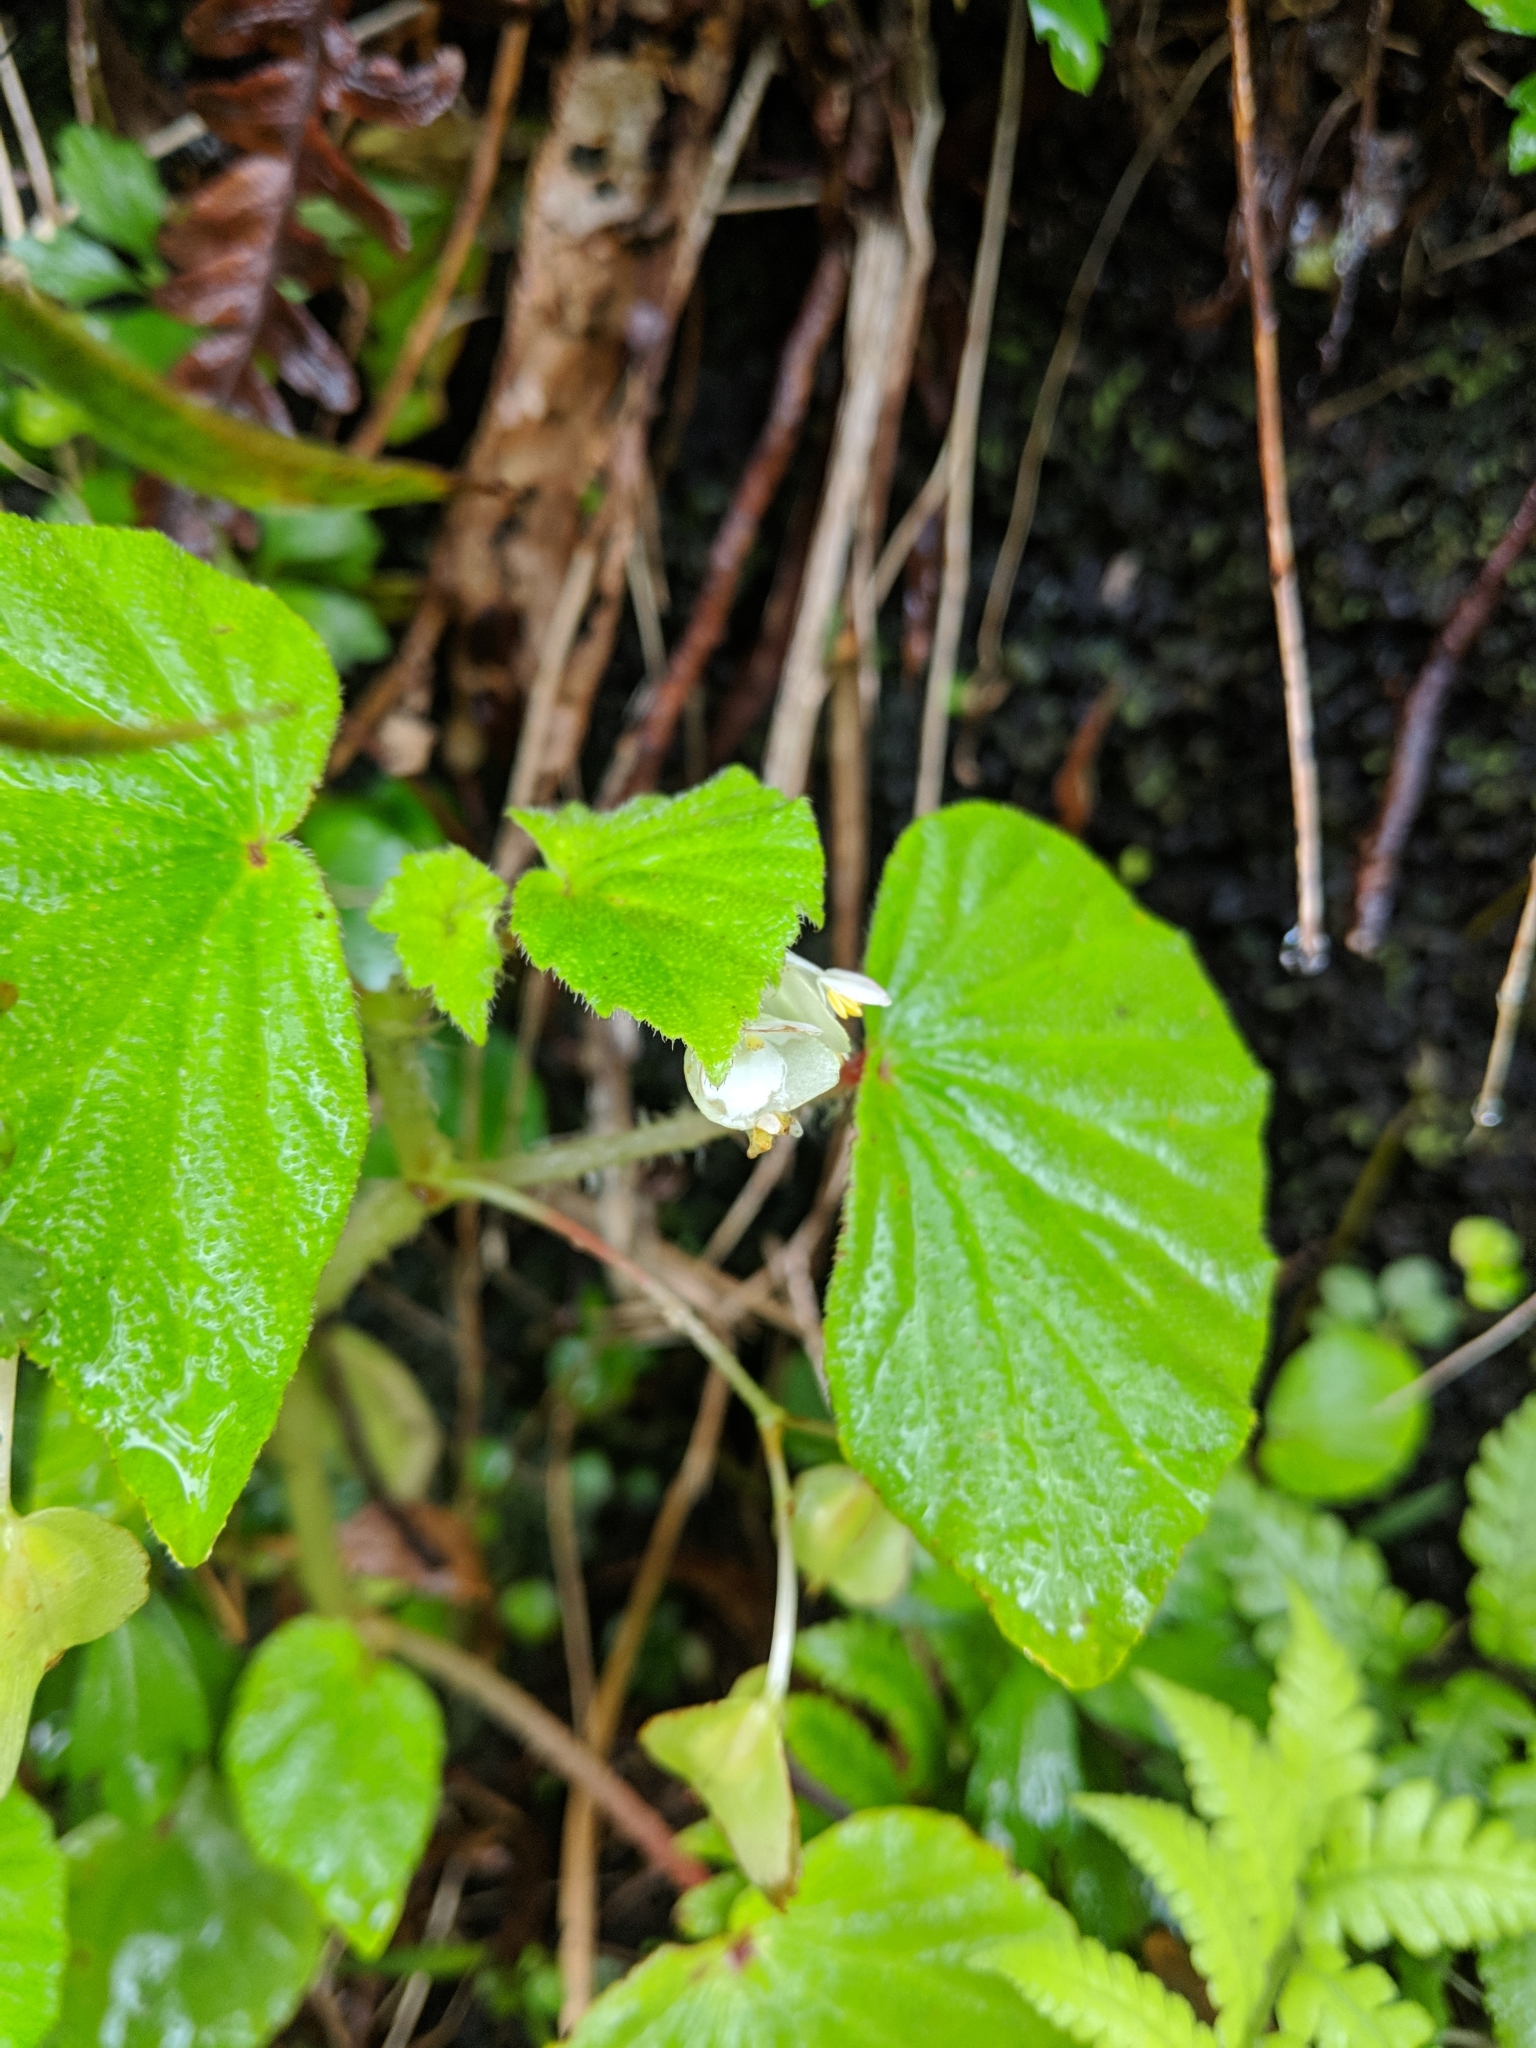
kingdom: Plantae
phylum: Tracheophyta
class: Magnoliopsida
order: Cucurbitales
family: Begoniaceae
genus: Begonia
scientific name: Begonia hirtella
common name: Brazilian begonia
